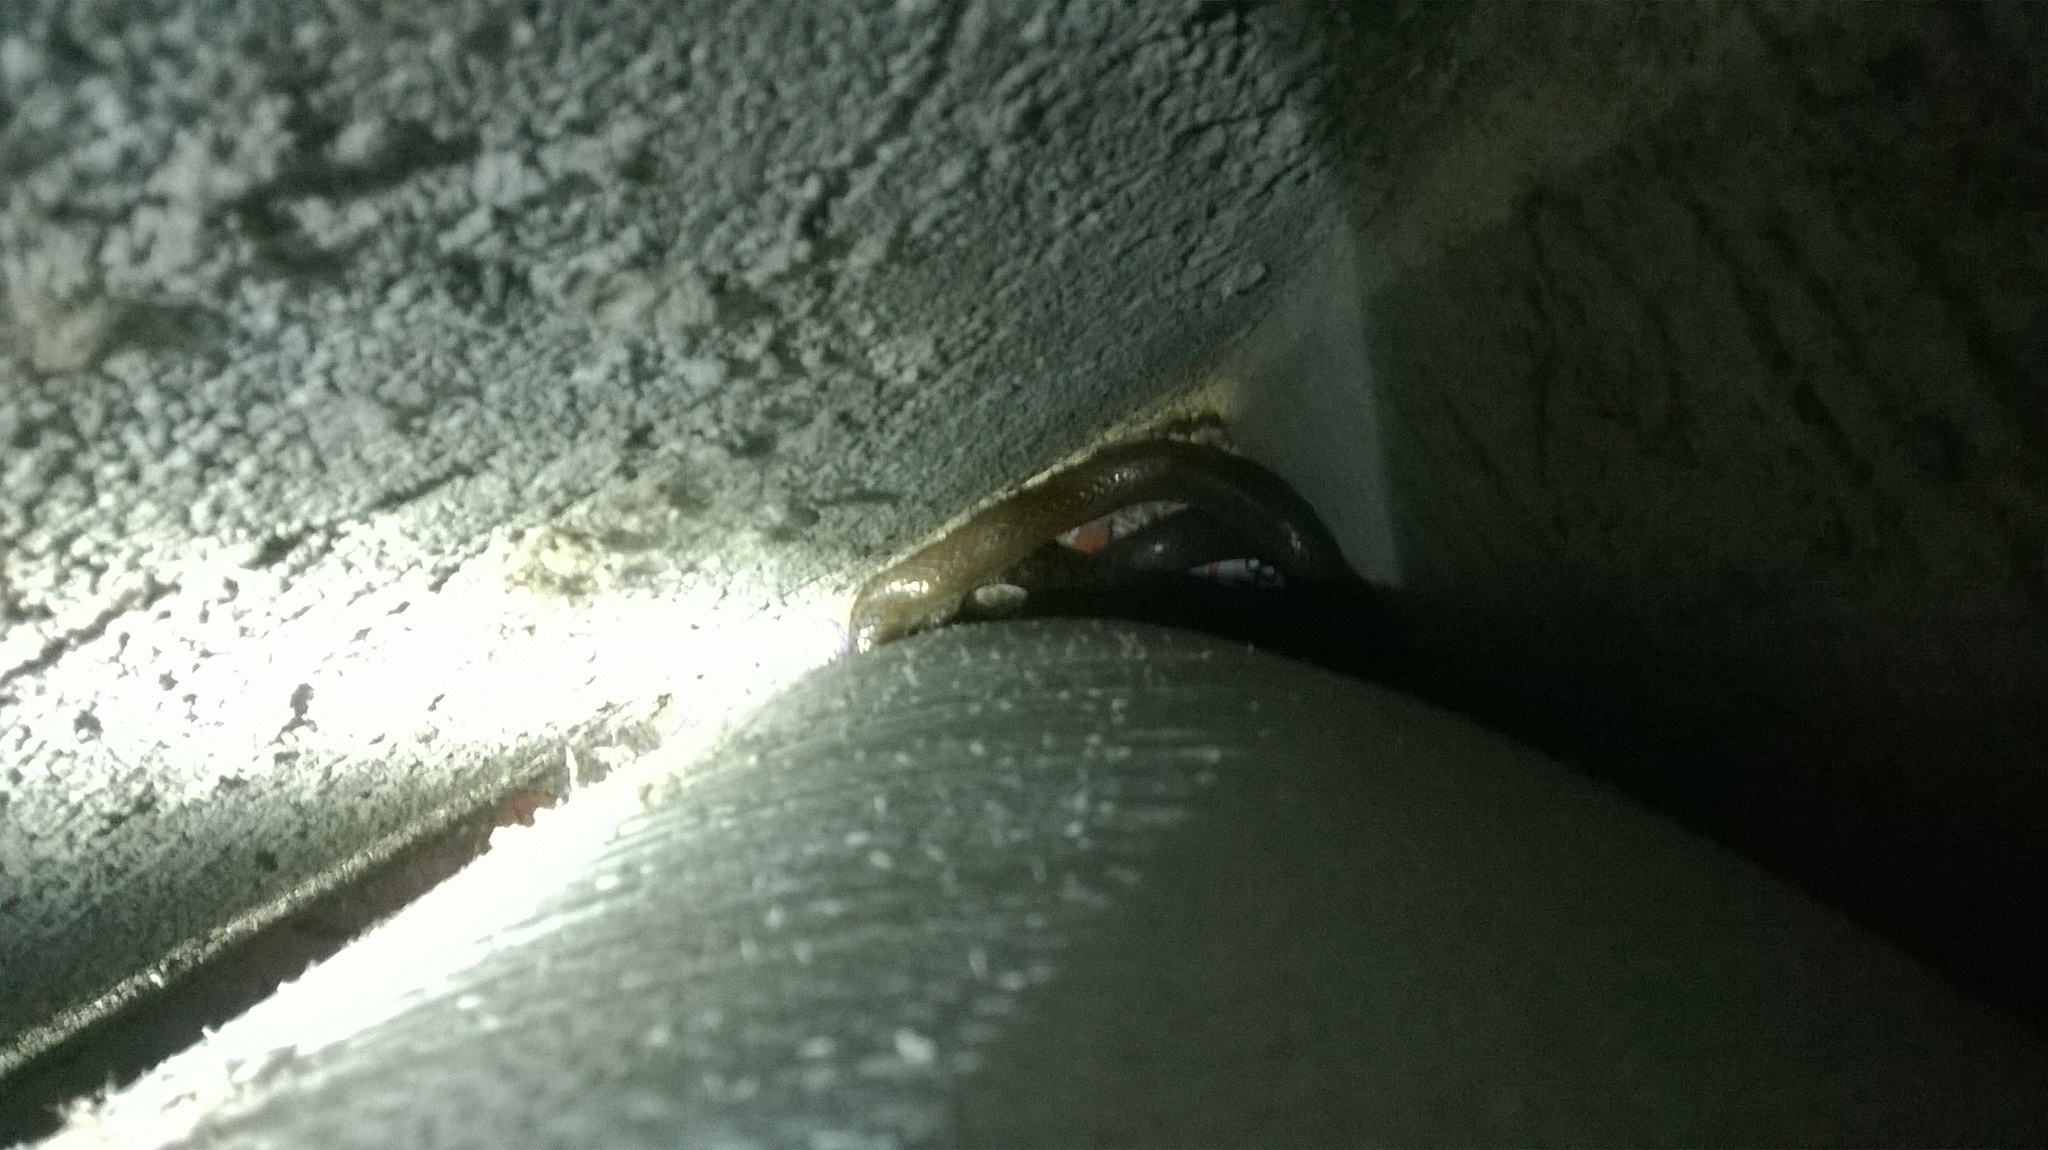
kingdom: Animalia
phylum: Chordata
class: Squamata
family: Colubridae
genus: Ptyas
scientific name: Ptyas mucosa
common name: Oriental ratsnake
